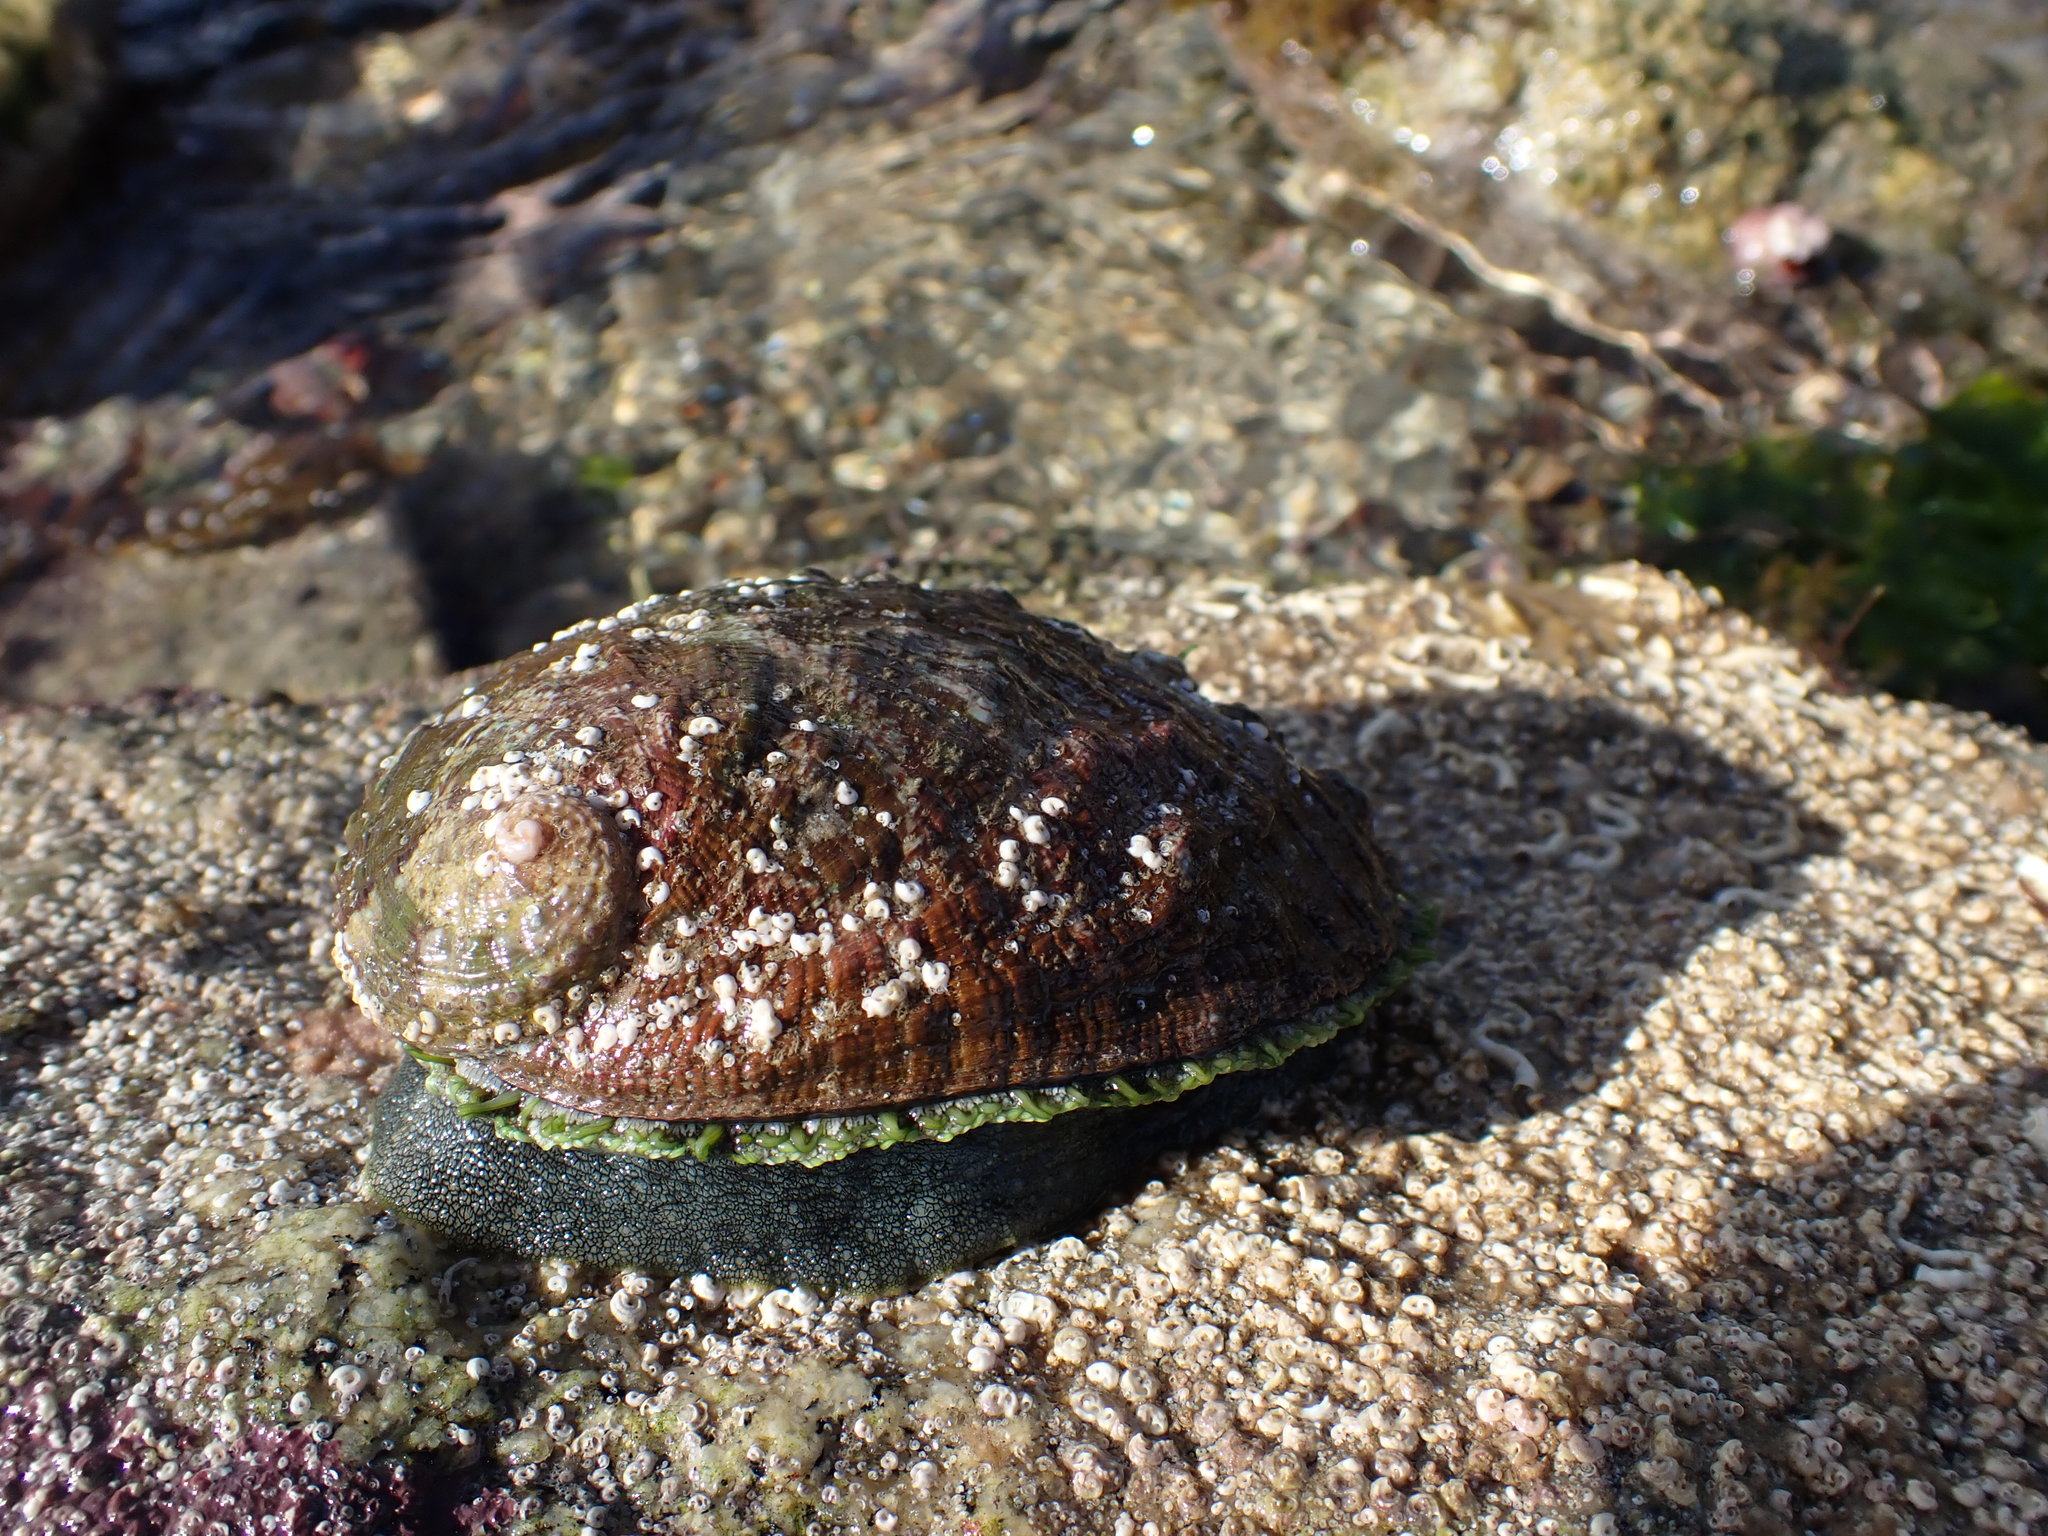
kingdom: Animalia
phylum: Mollusca
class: Gastropoda
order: Lepetellida
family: Haliotidae
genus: Haliotis
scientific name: Haliotis tuberculata
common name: Green ormer
